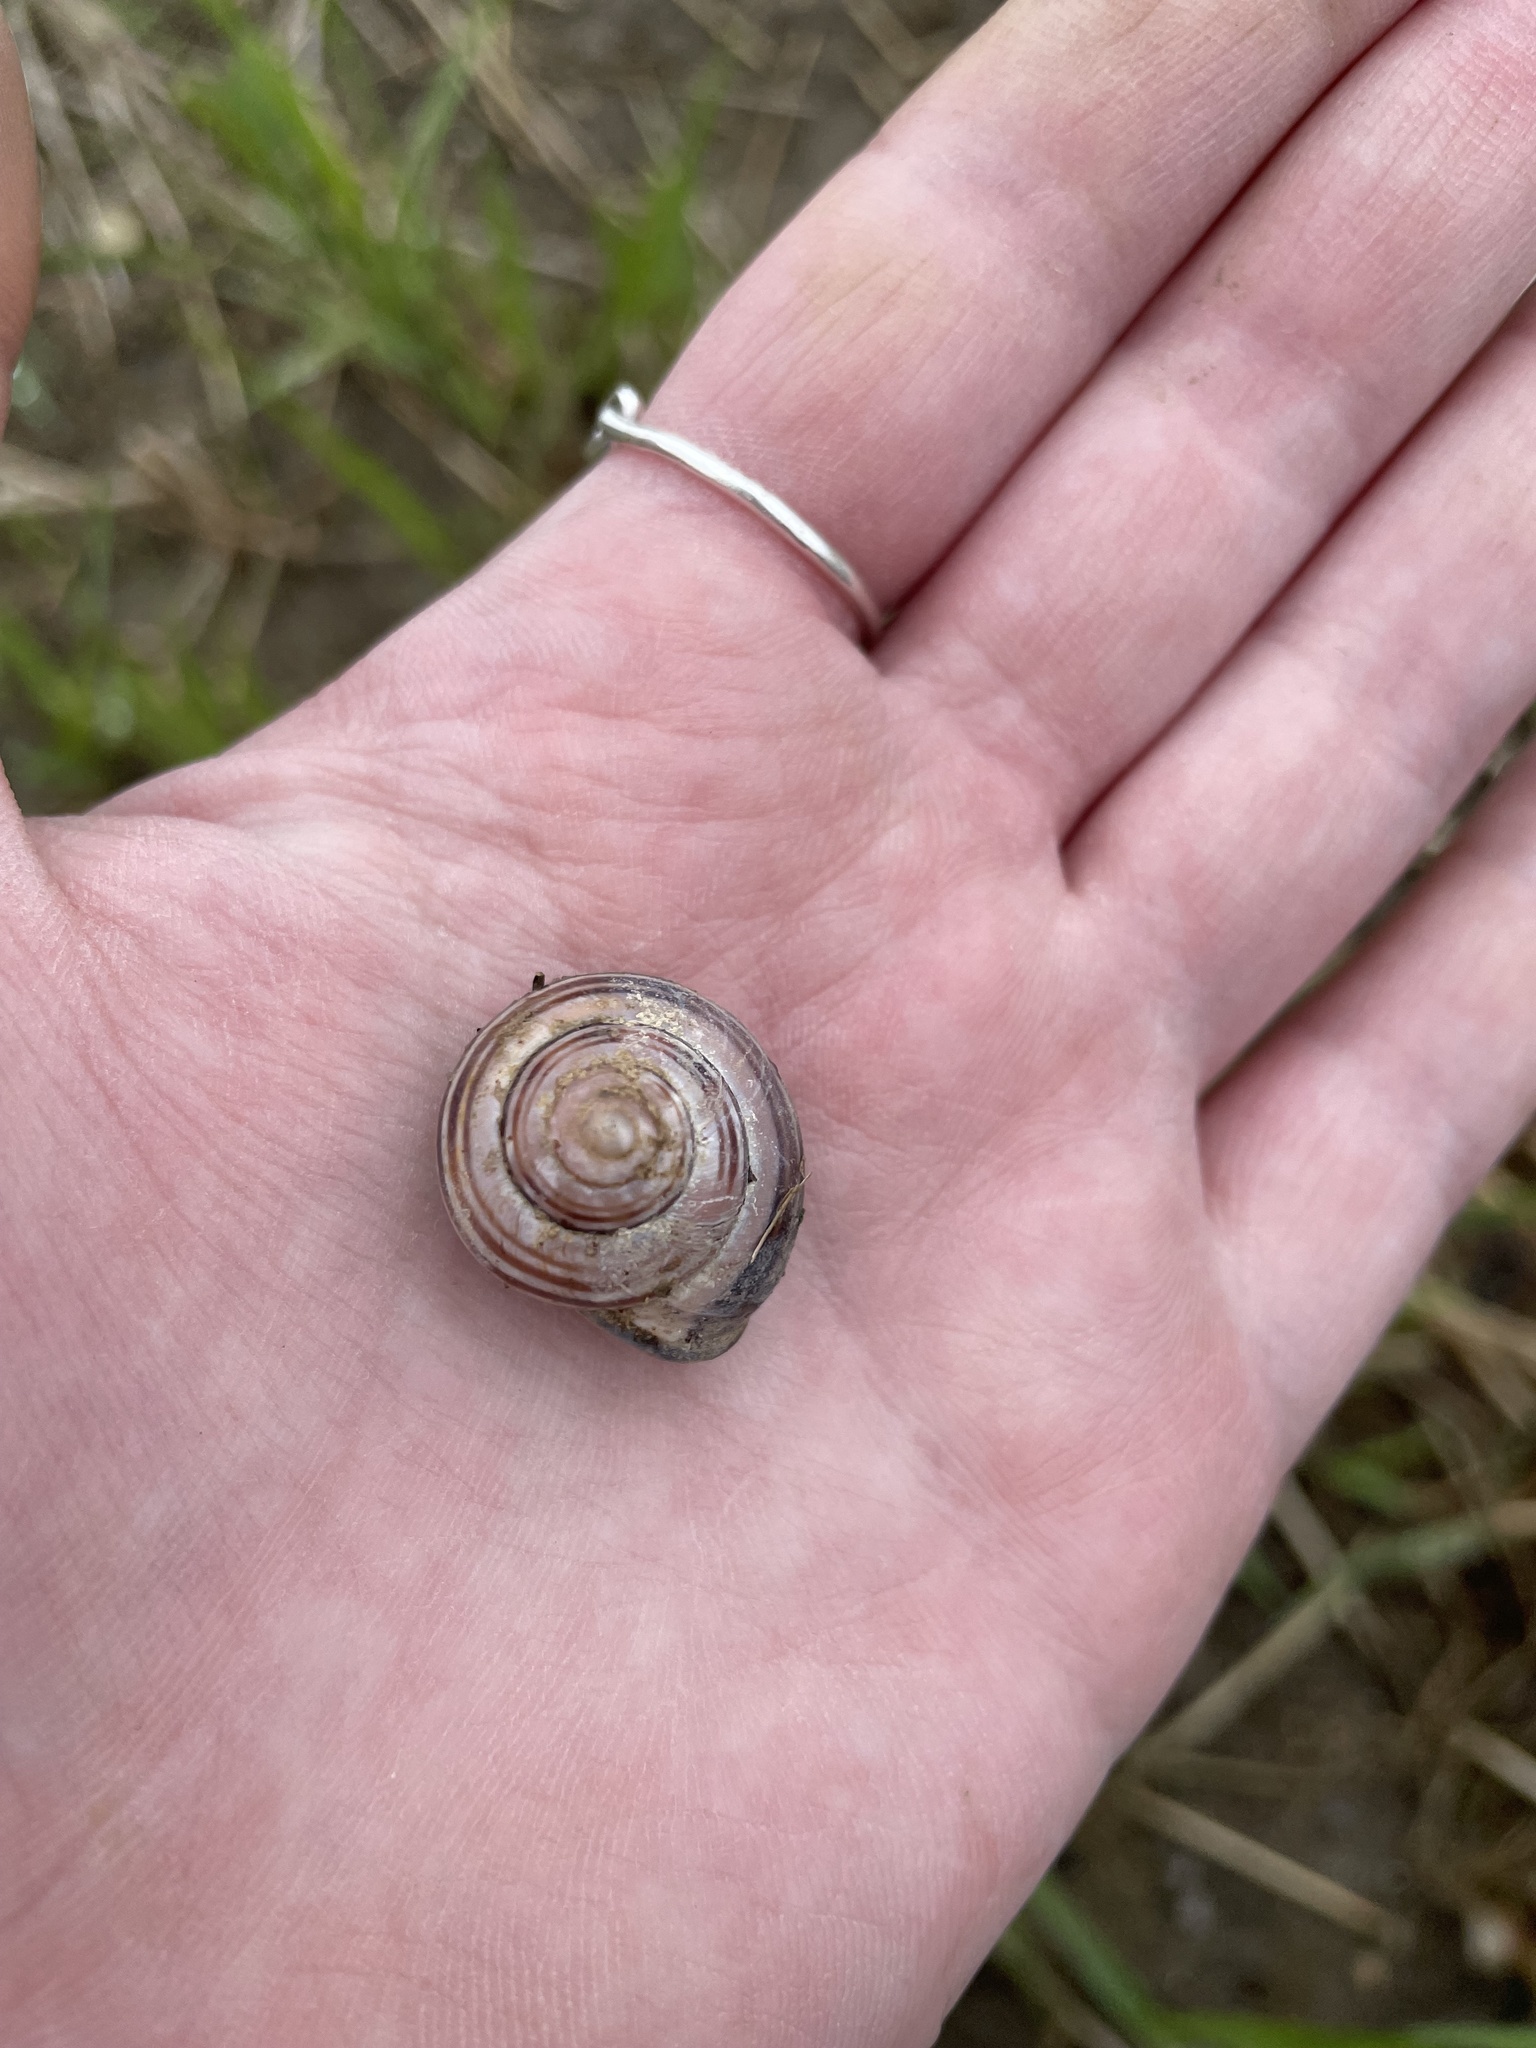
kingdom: Animalia
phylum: Mollusca
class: Gastropoda
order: Stylommatophora
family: Helicidae
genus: Cepaea
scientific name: Cepaea nemoralis
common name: Grovesnail
